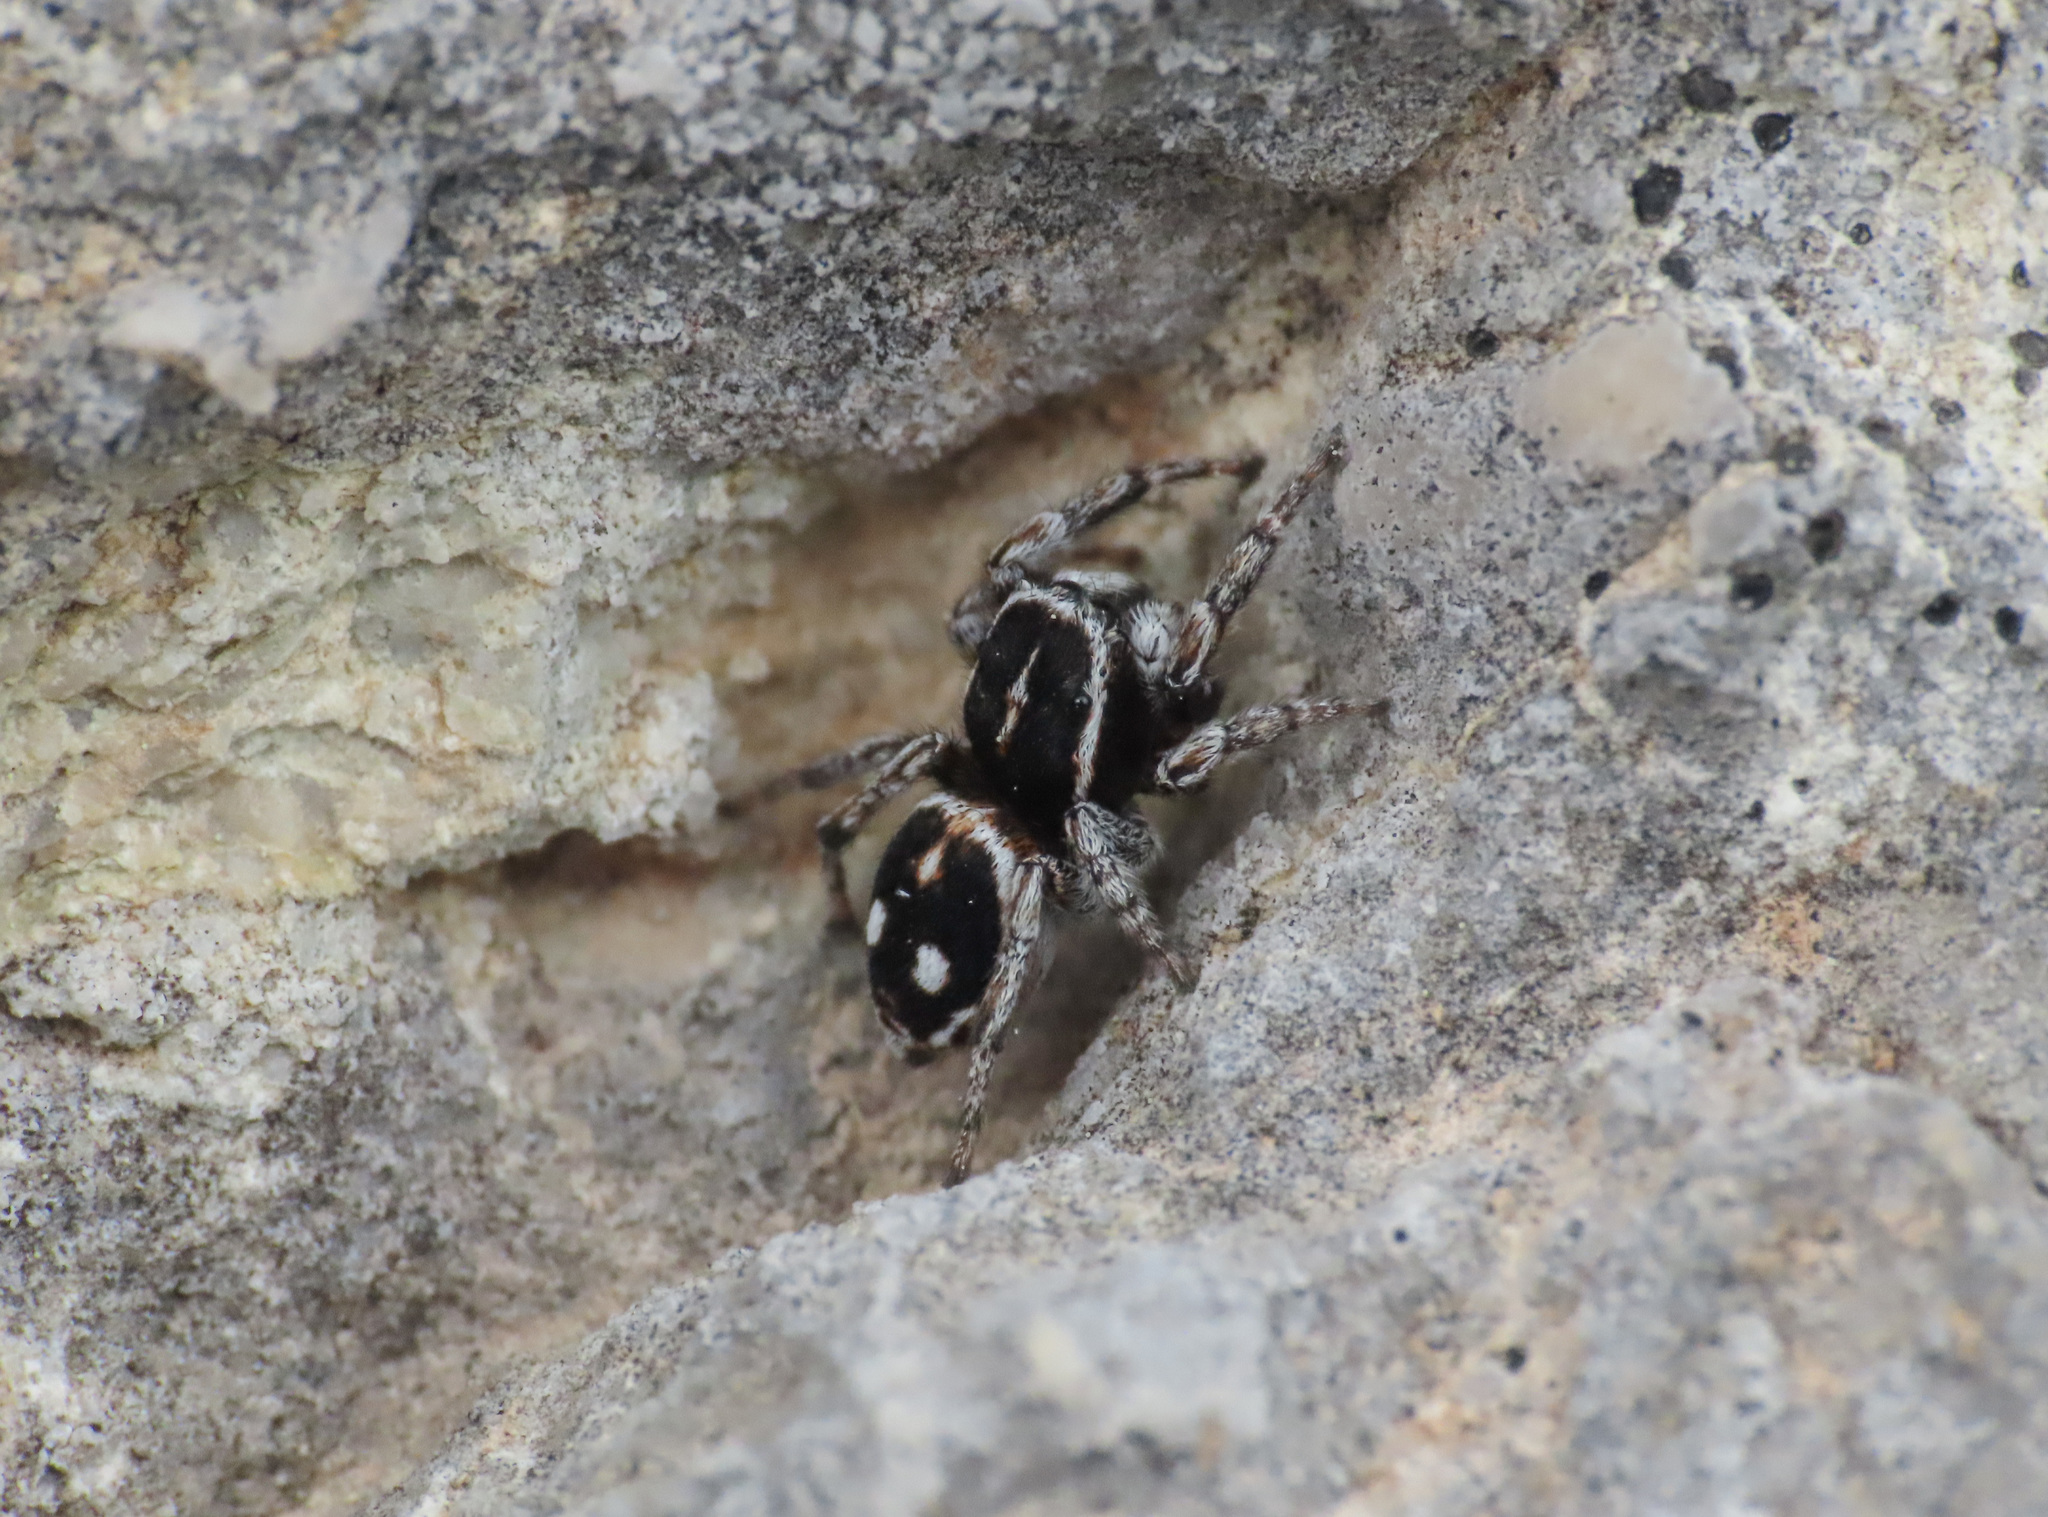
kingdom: Animalia
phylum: Arthropoda
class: Arachnida
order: Araneae
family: Salticidae
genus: Attulus
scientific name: Attulus atricapillus
